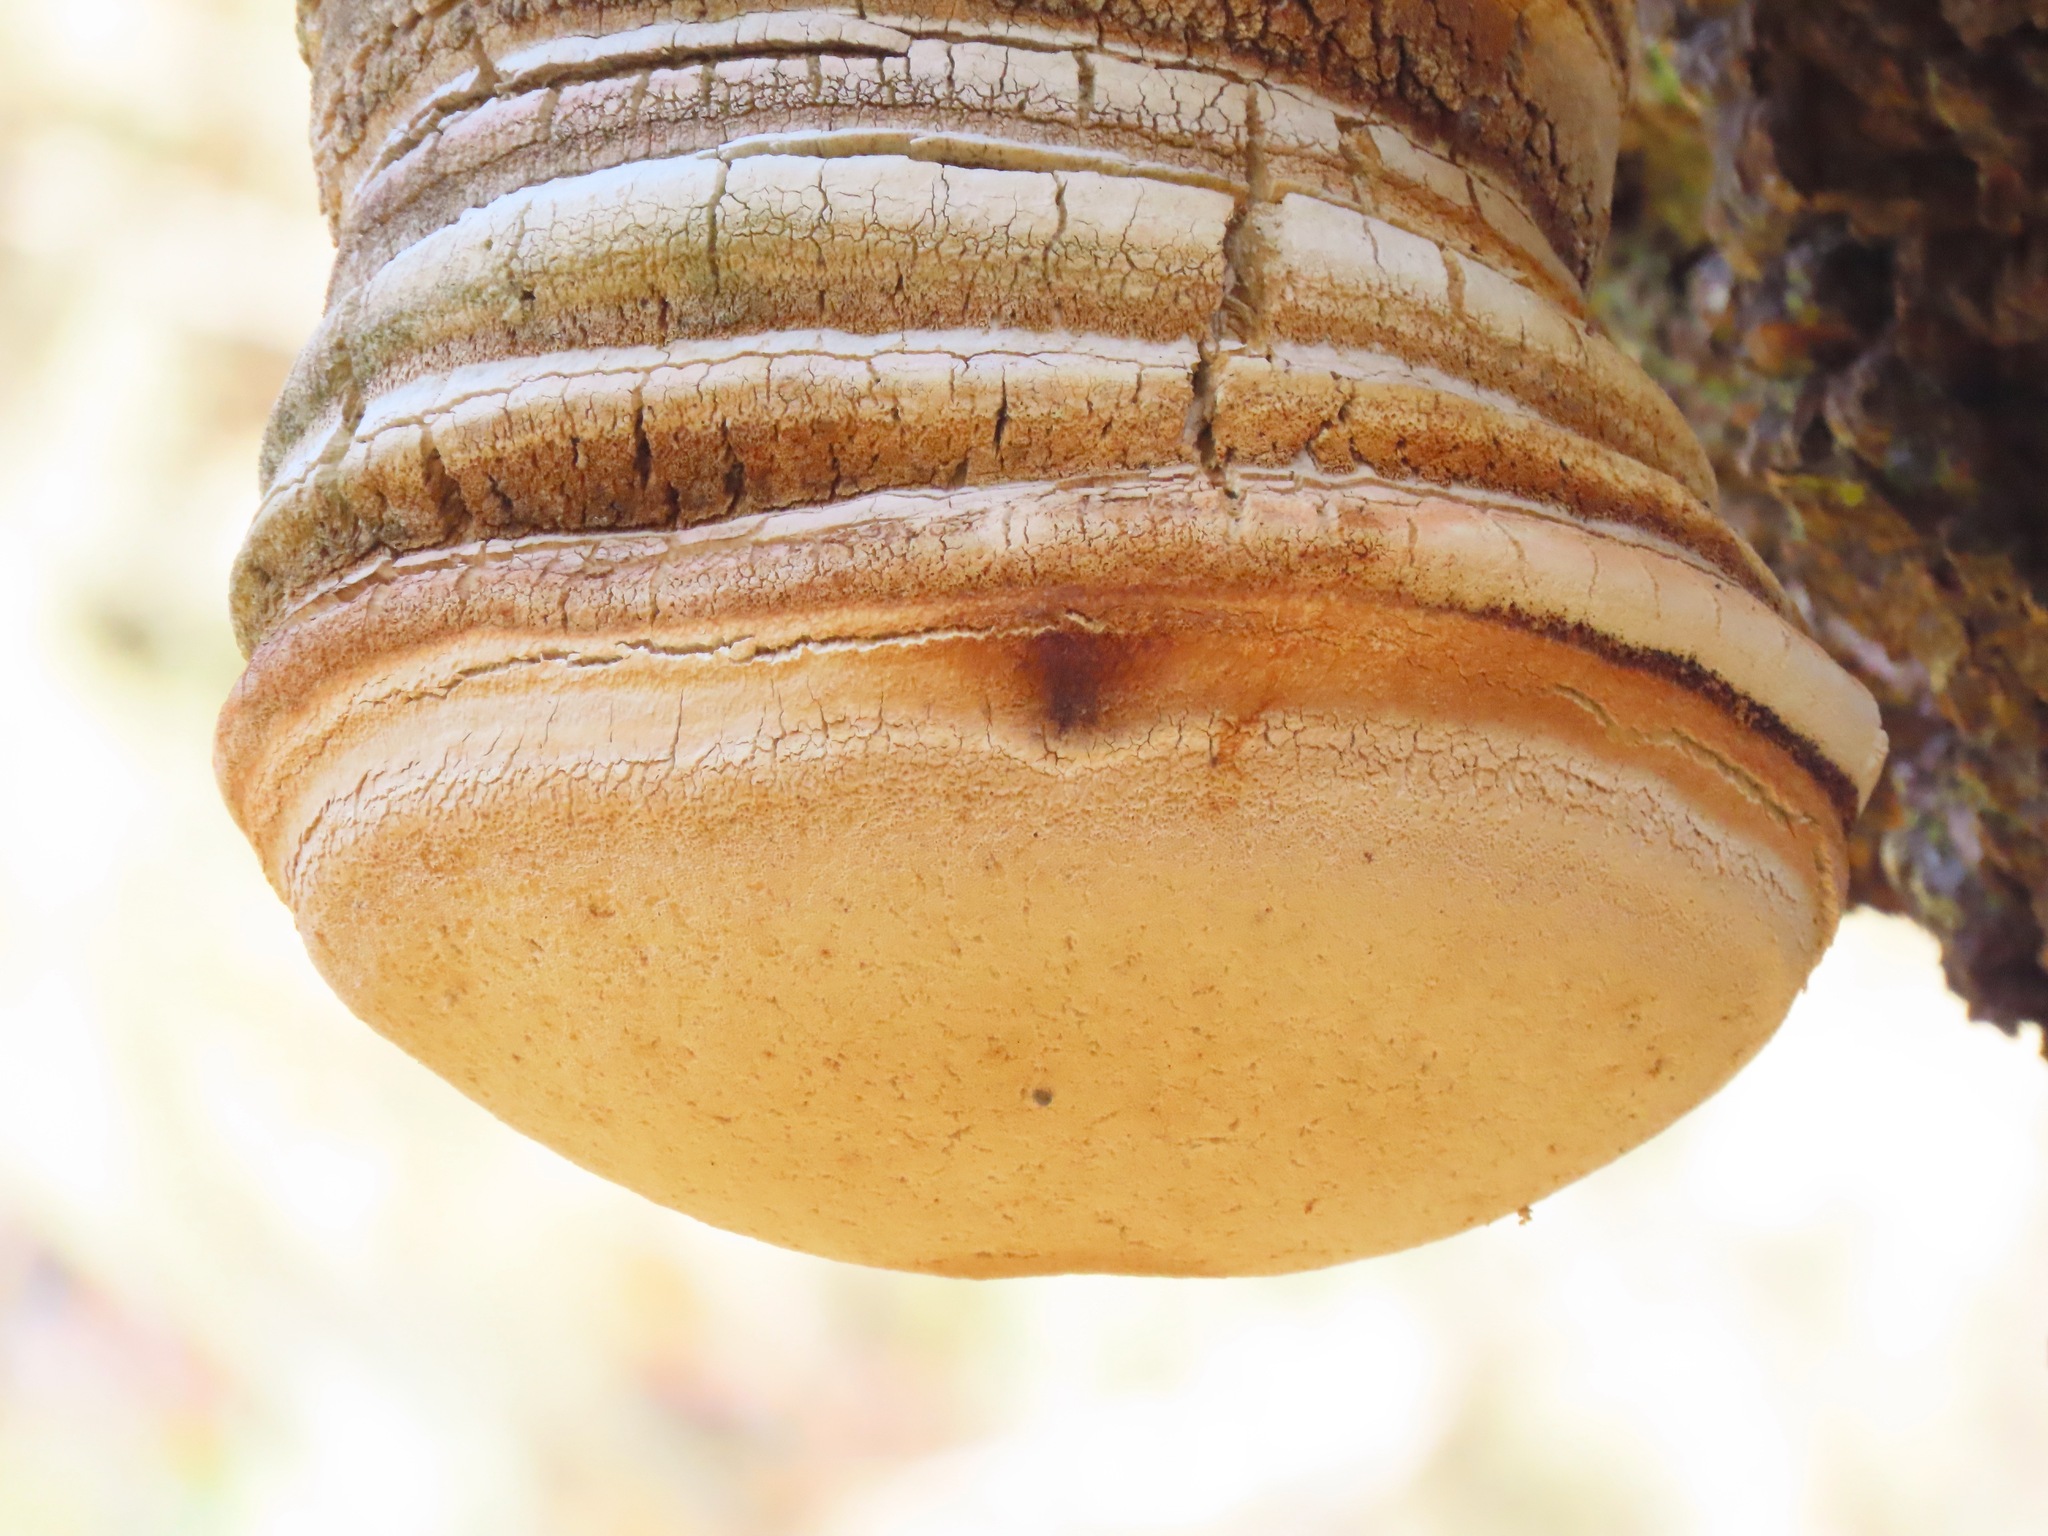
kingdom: Fungi
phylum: Basidiomycota
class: Agaricomycetes
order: Polyporales
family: Fomitopsidaceae
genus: Fomitopsis
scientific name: Fomitopsis officinalis
